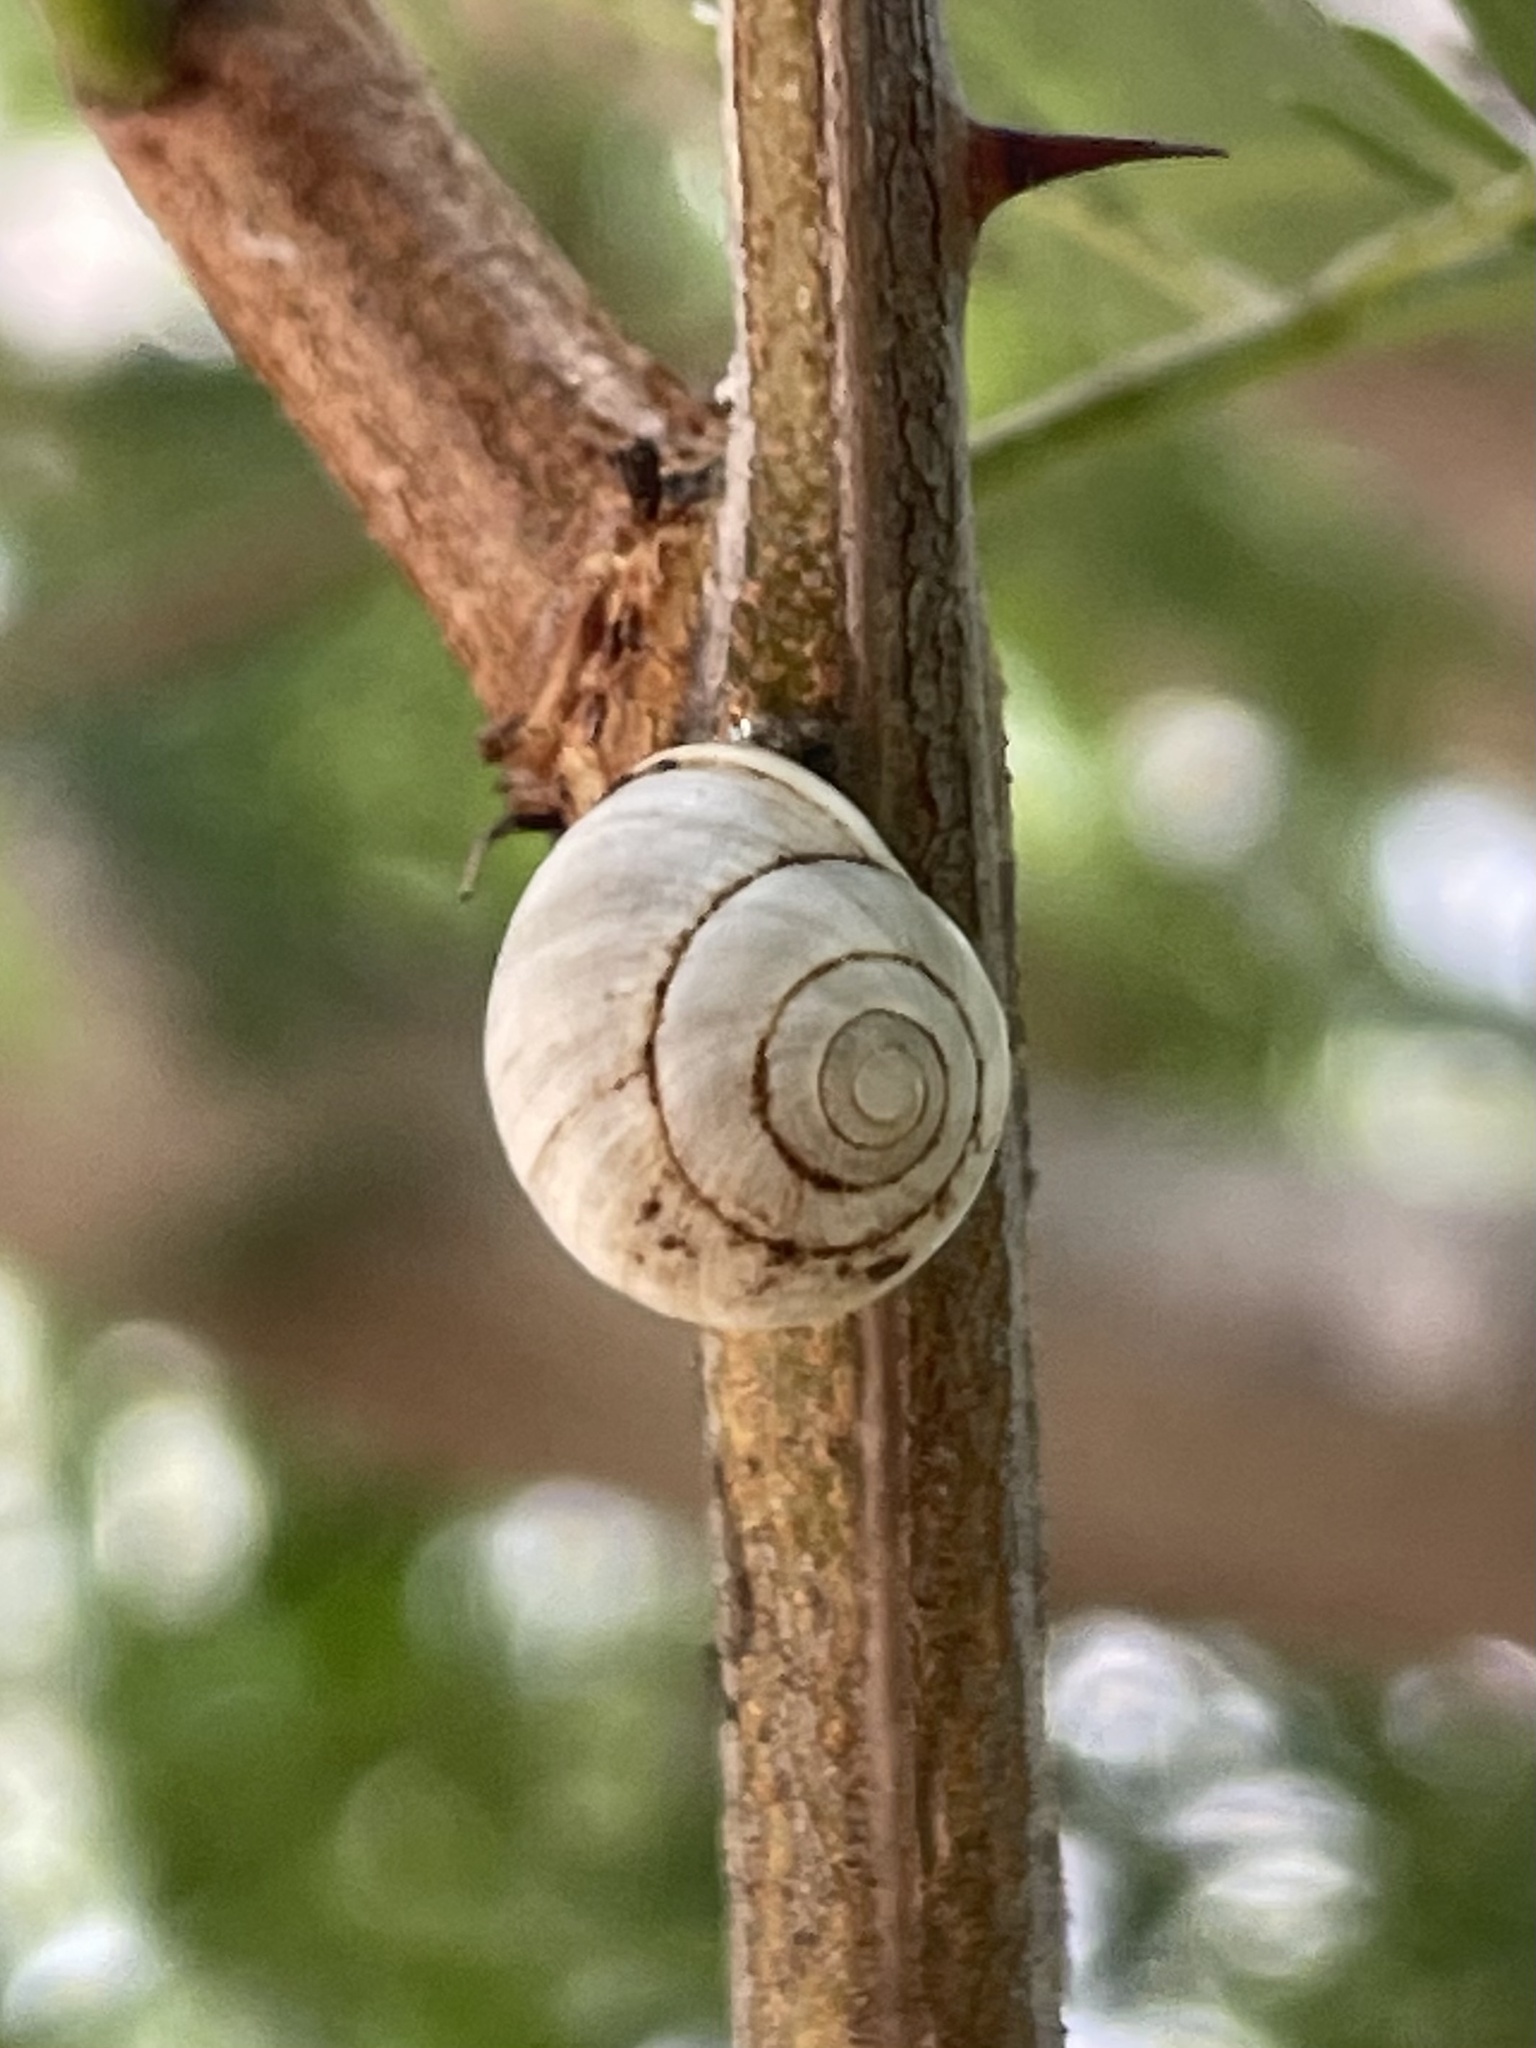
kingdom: Animalia
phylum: Mollusca
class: Gastropoda
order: Cycloneritida
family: Helicinidae
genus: Helicina
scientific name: Helicina orbiculata
